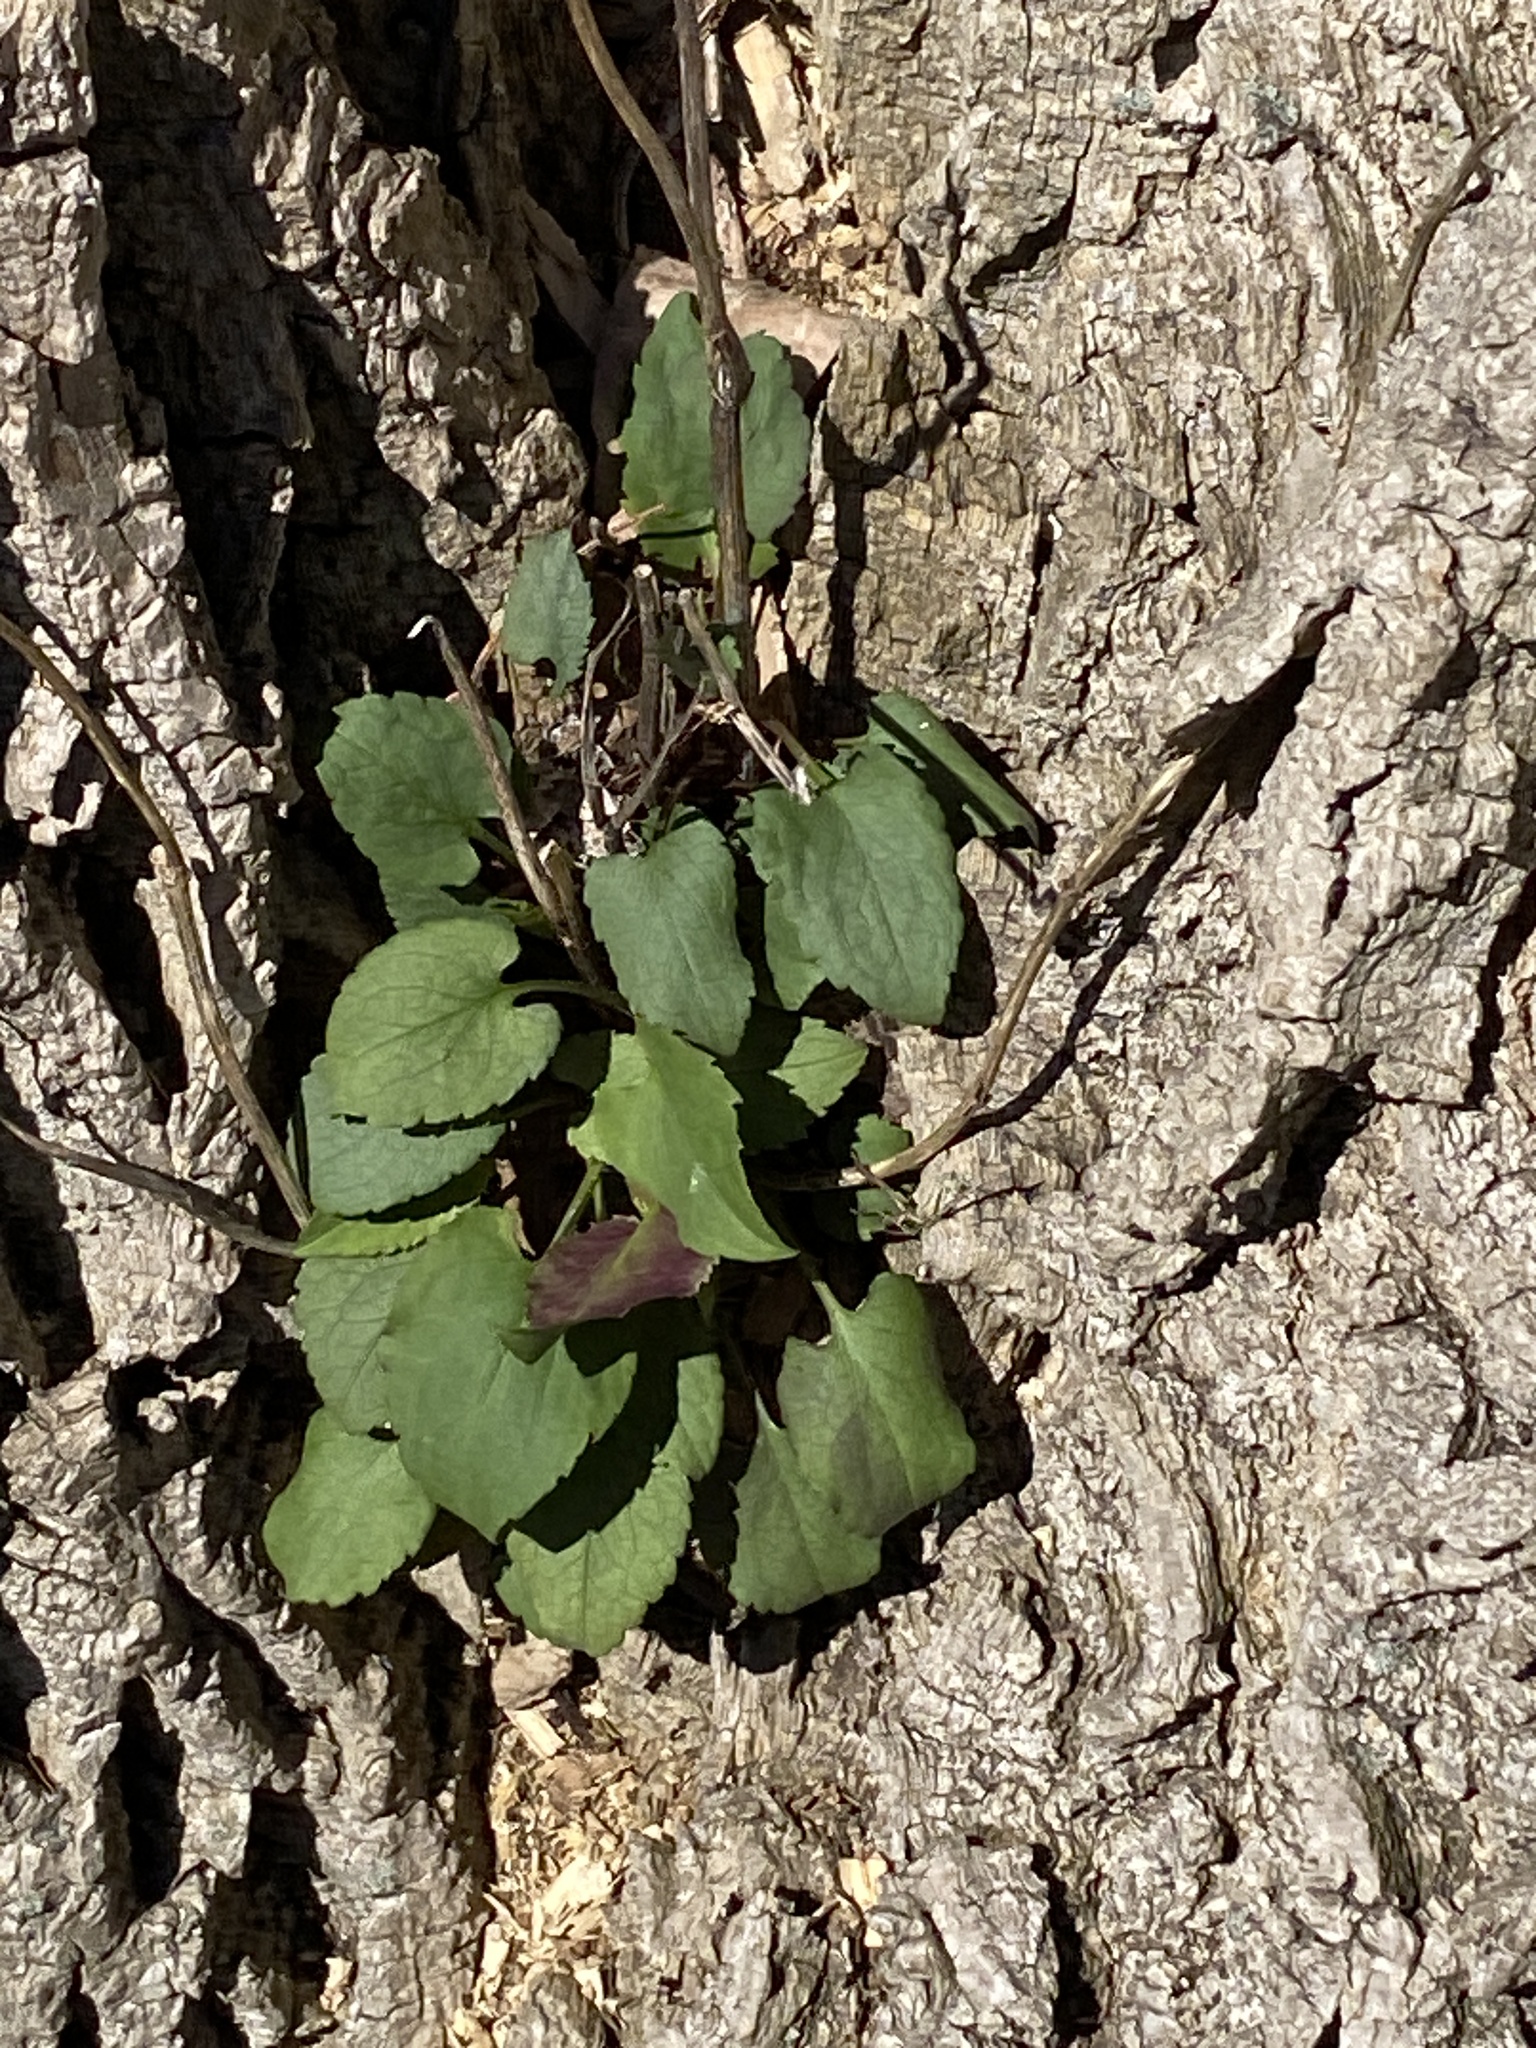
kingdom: Plantae
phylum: Tracheophyta
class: Magnoliopsida
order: Asterales
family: Asteraceae
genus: Eurybia
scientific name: Eurybia divaricata
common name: White wood aster
